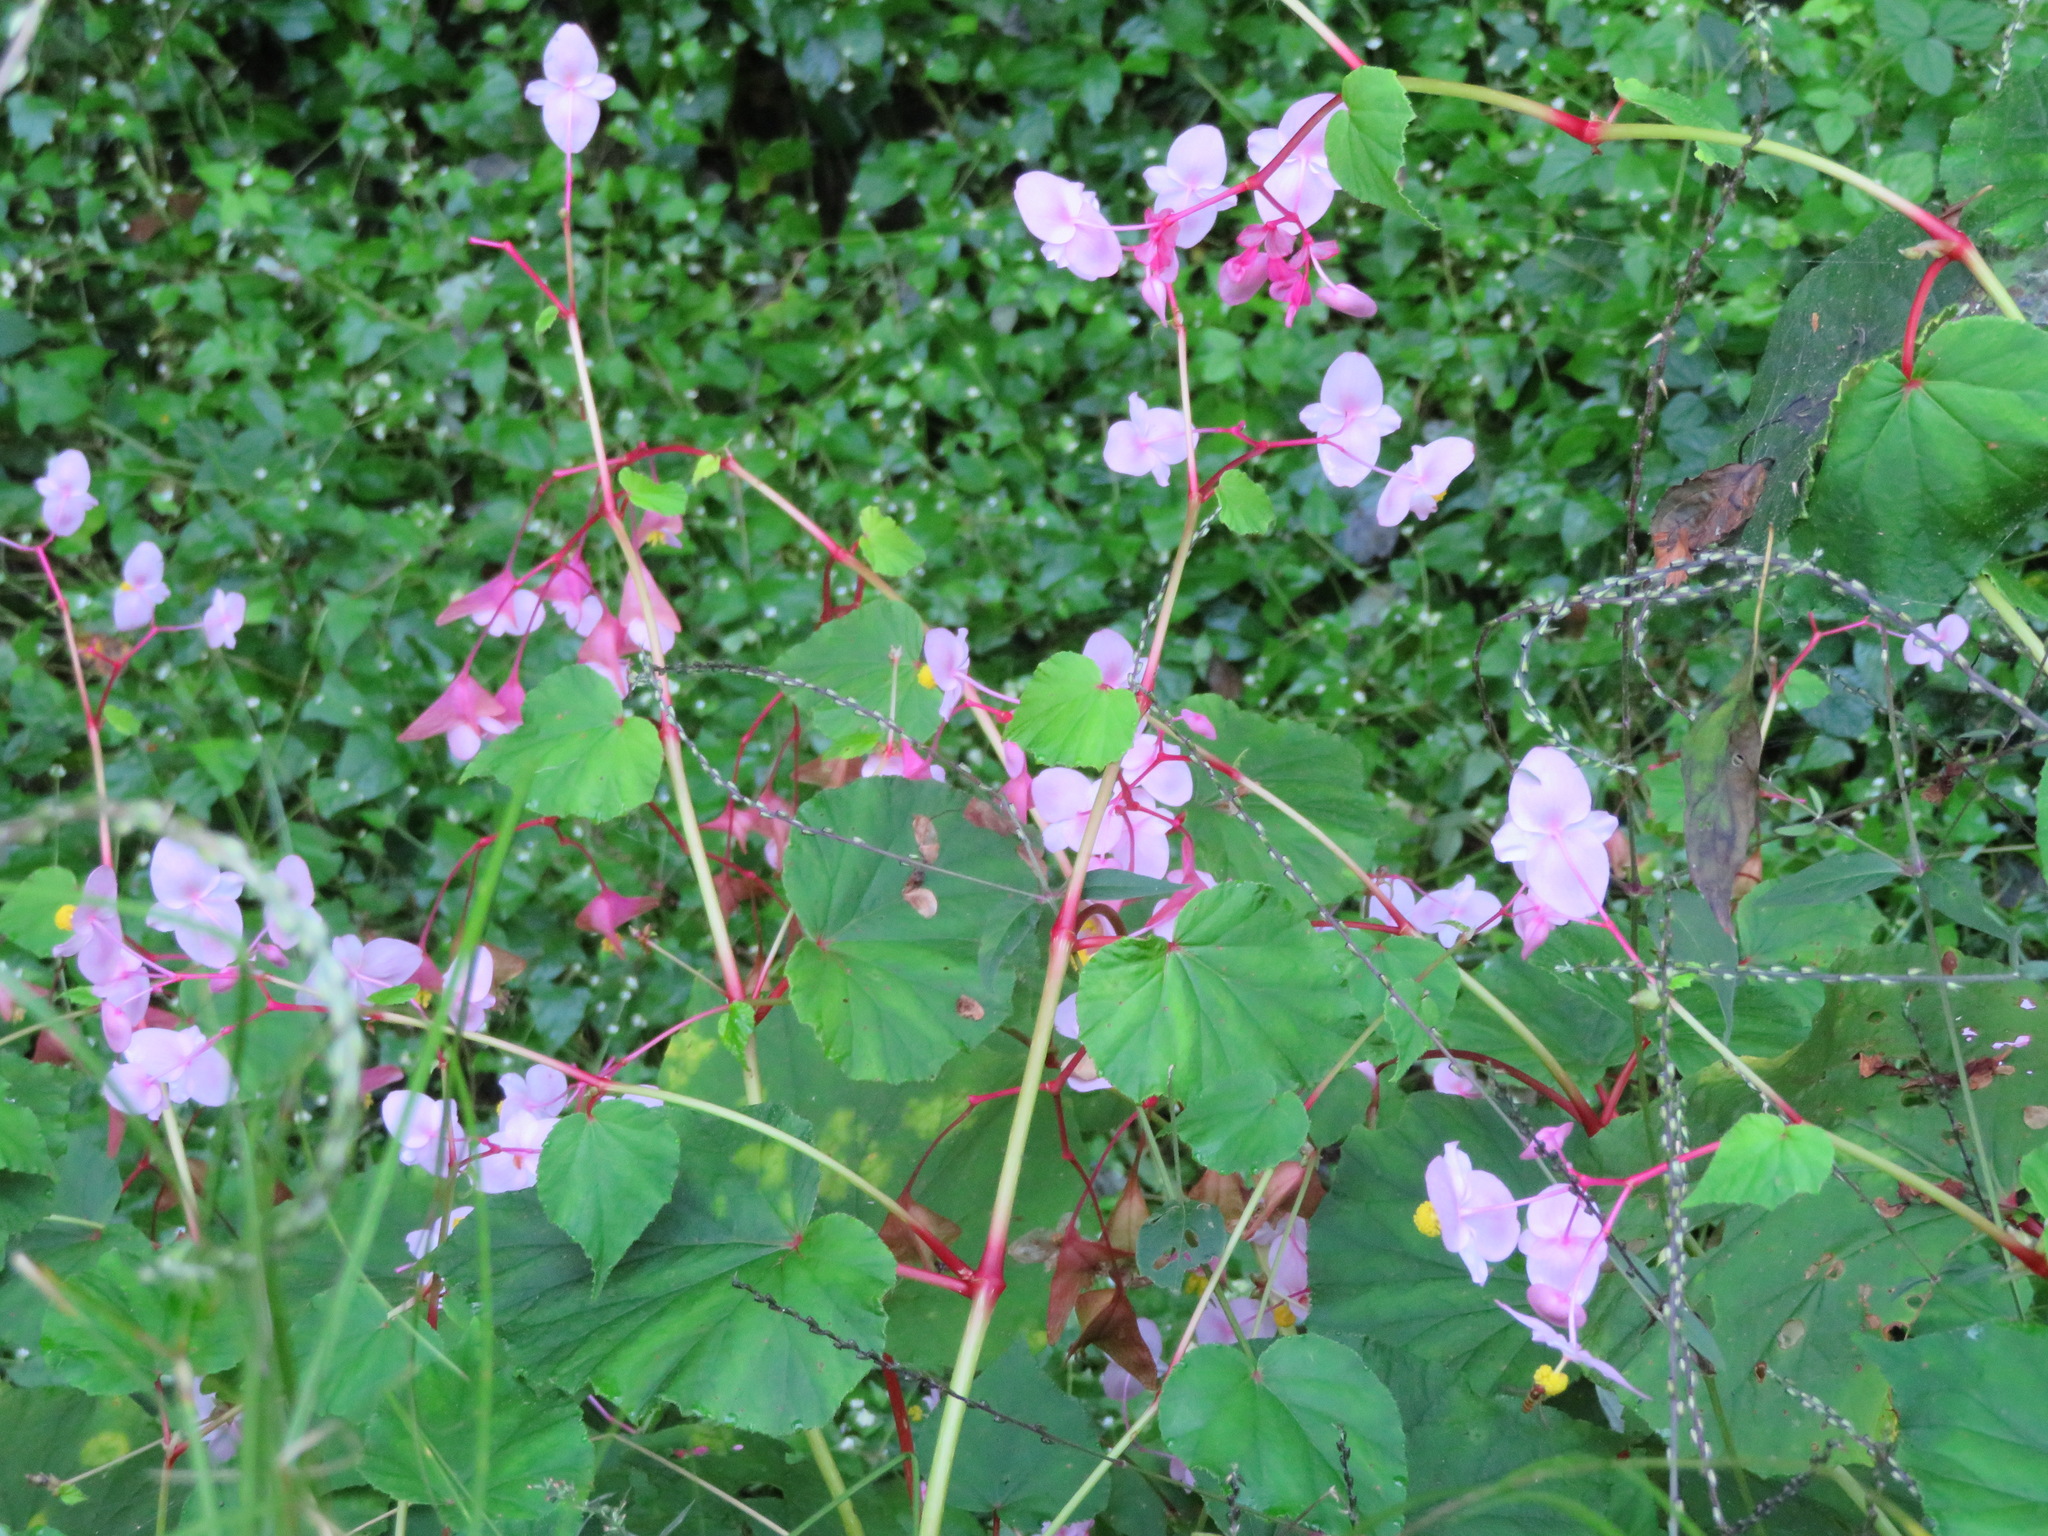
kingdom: Plantae
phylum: Tracheophyta
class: Magnoliopsida
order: Cucurbitales
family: Begoniaceae
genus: Begonia
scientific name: Begonia grandis
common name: Hardy begonia
